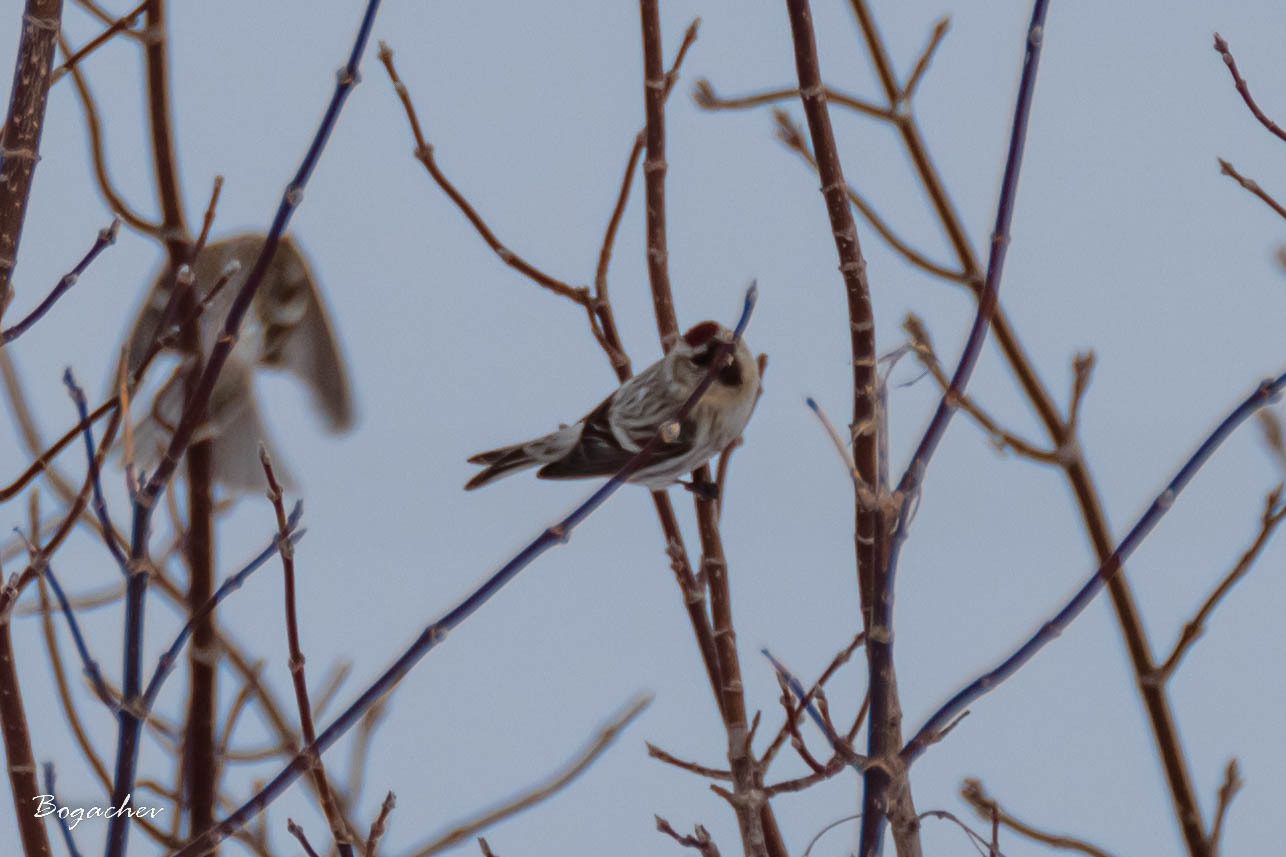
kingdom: Animalia
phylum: Chordata
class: Aves
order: Passeriformes
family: Fringillidae
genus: Acanthis
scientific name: Acanthis flammea
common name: Common redpoll
